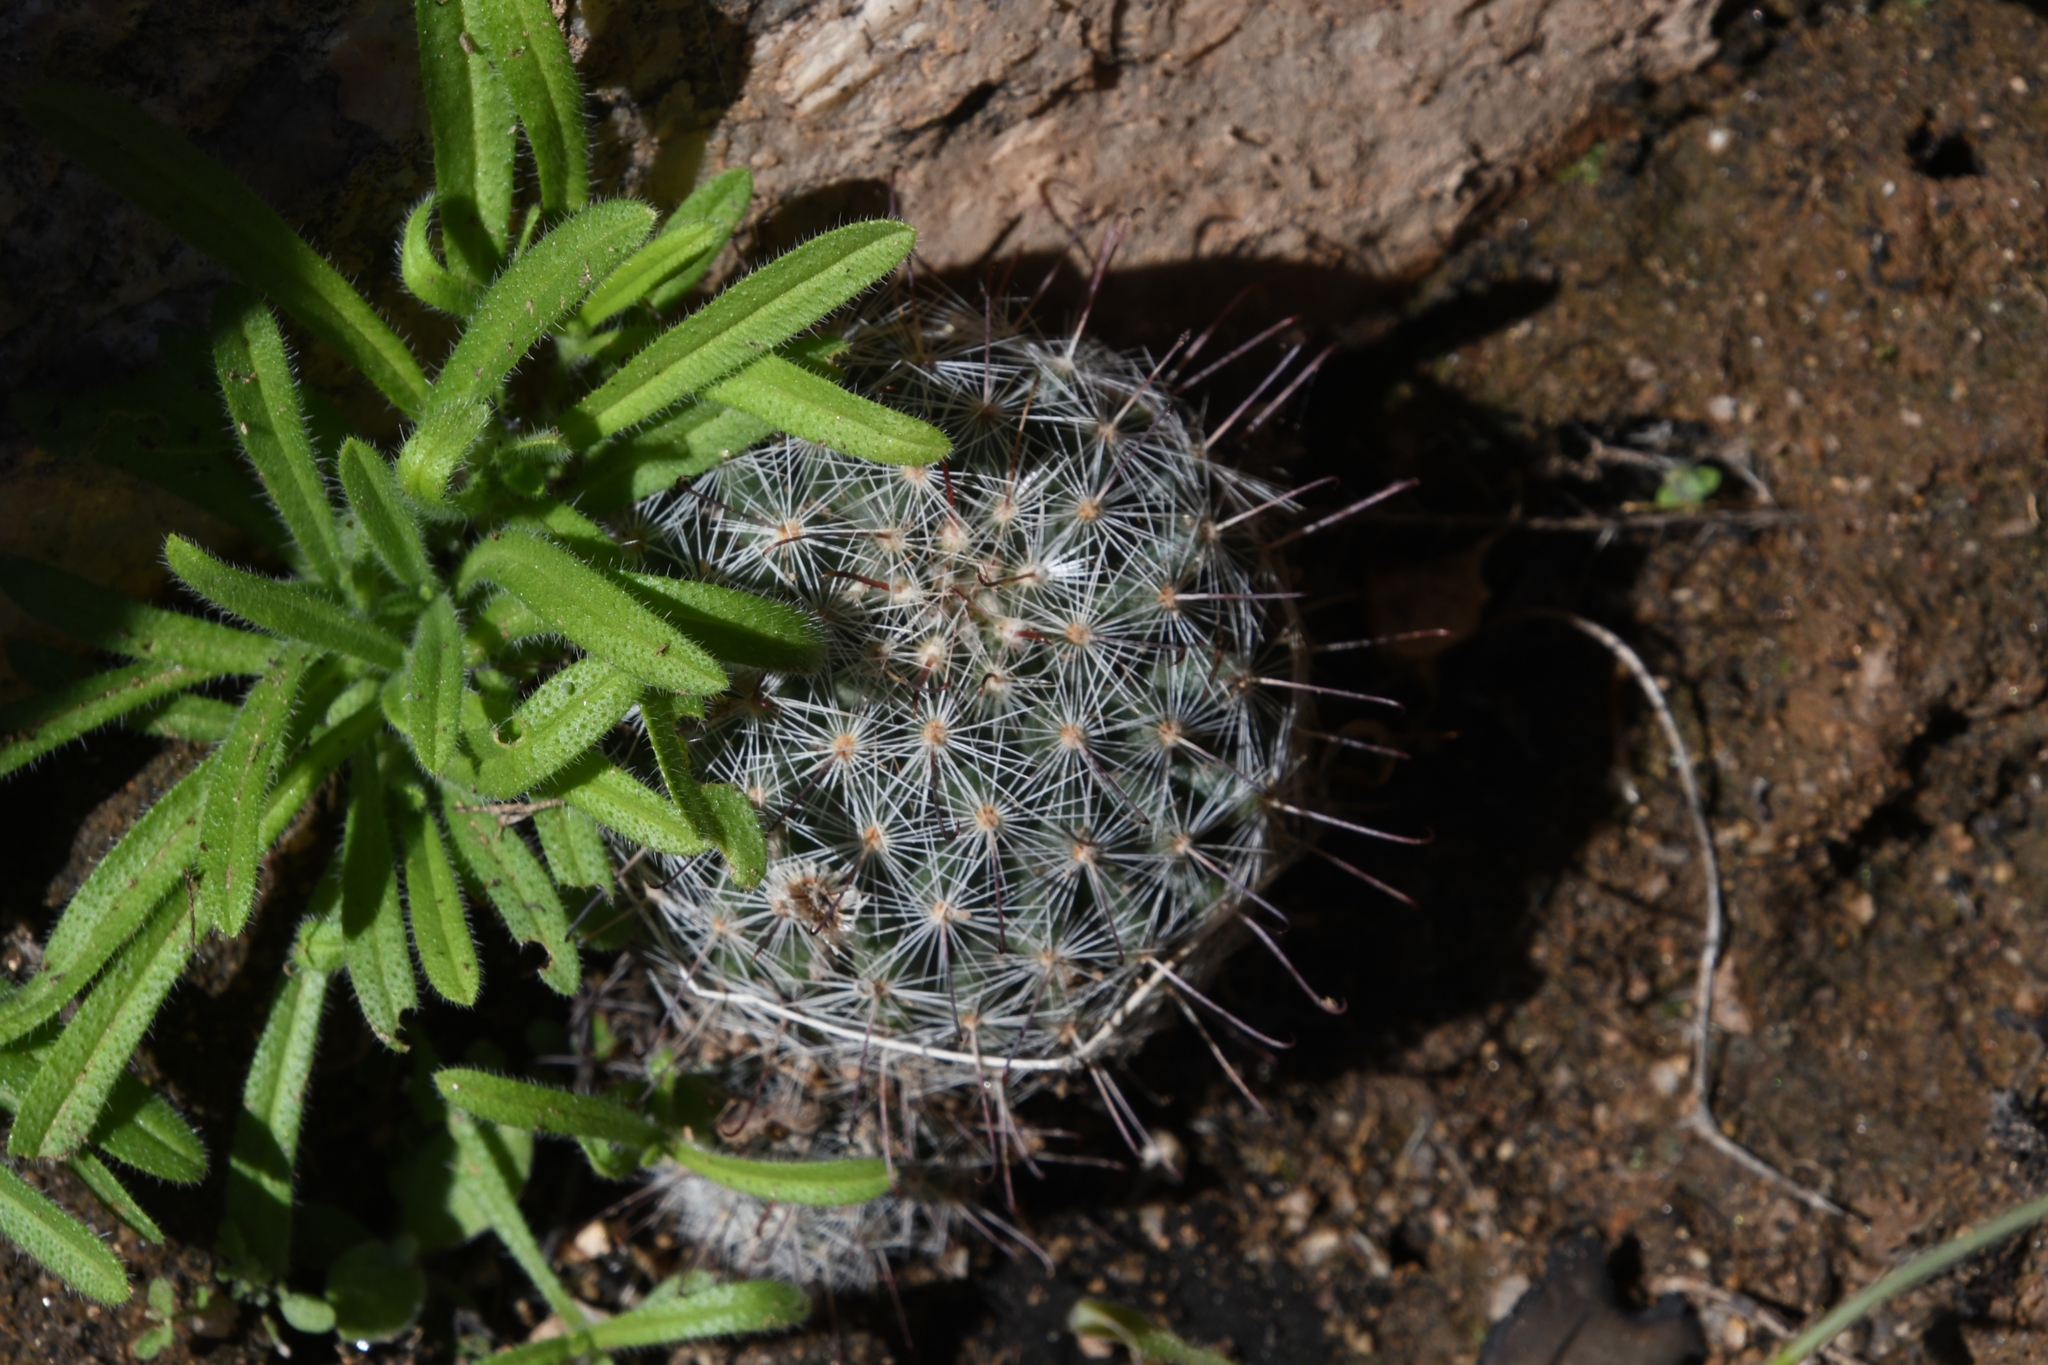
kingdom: Plantae
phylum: Tracheophyta
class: Magnoliopsida
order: Caryophyllales
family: Cactaceae
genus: Cochemiea
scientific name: Cochemiea grahamii
